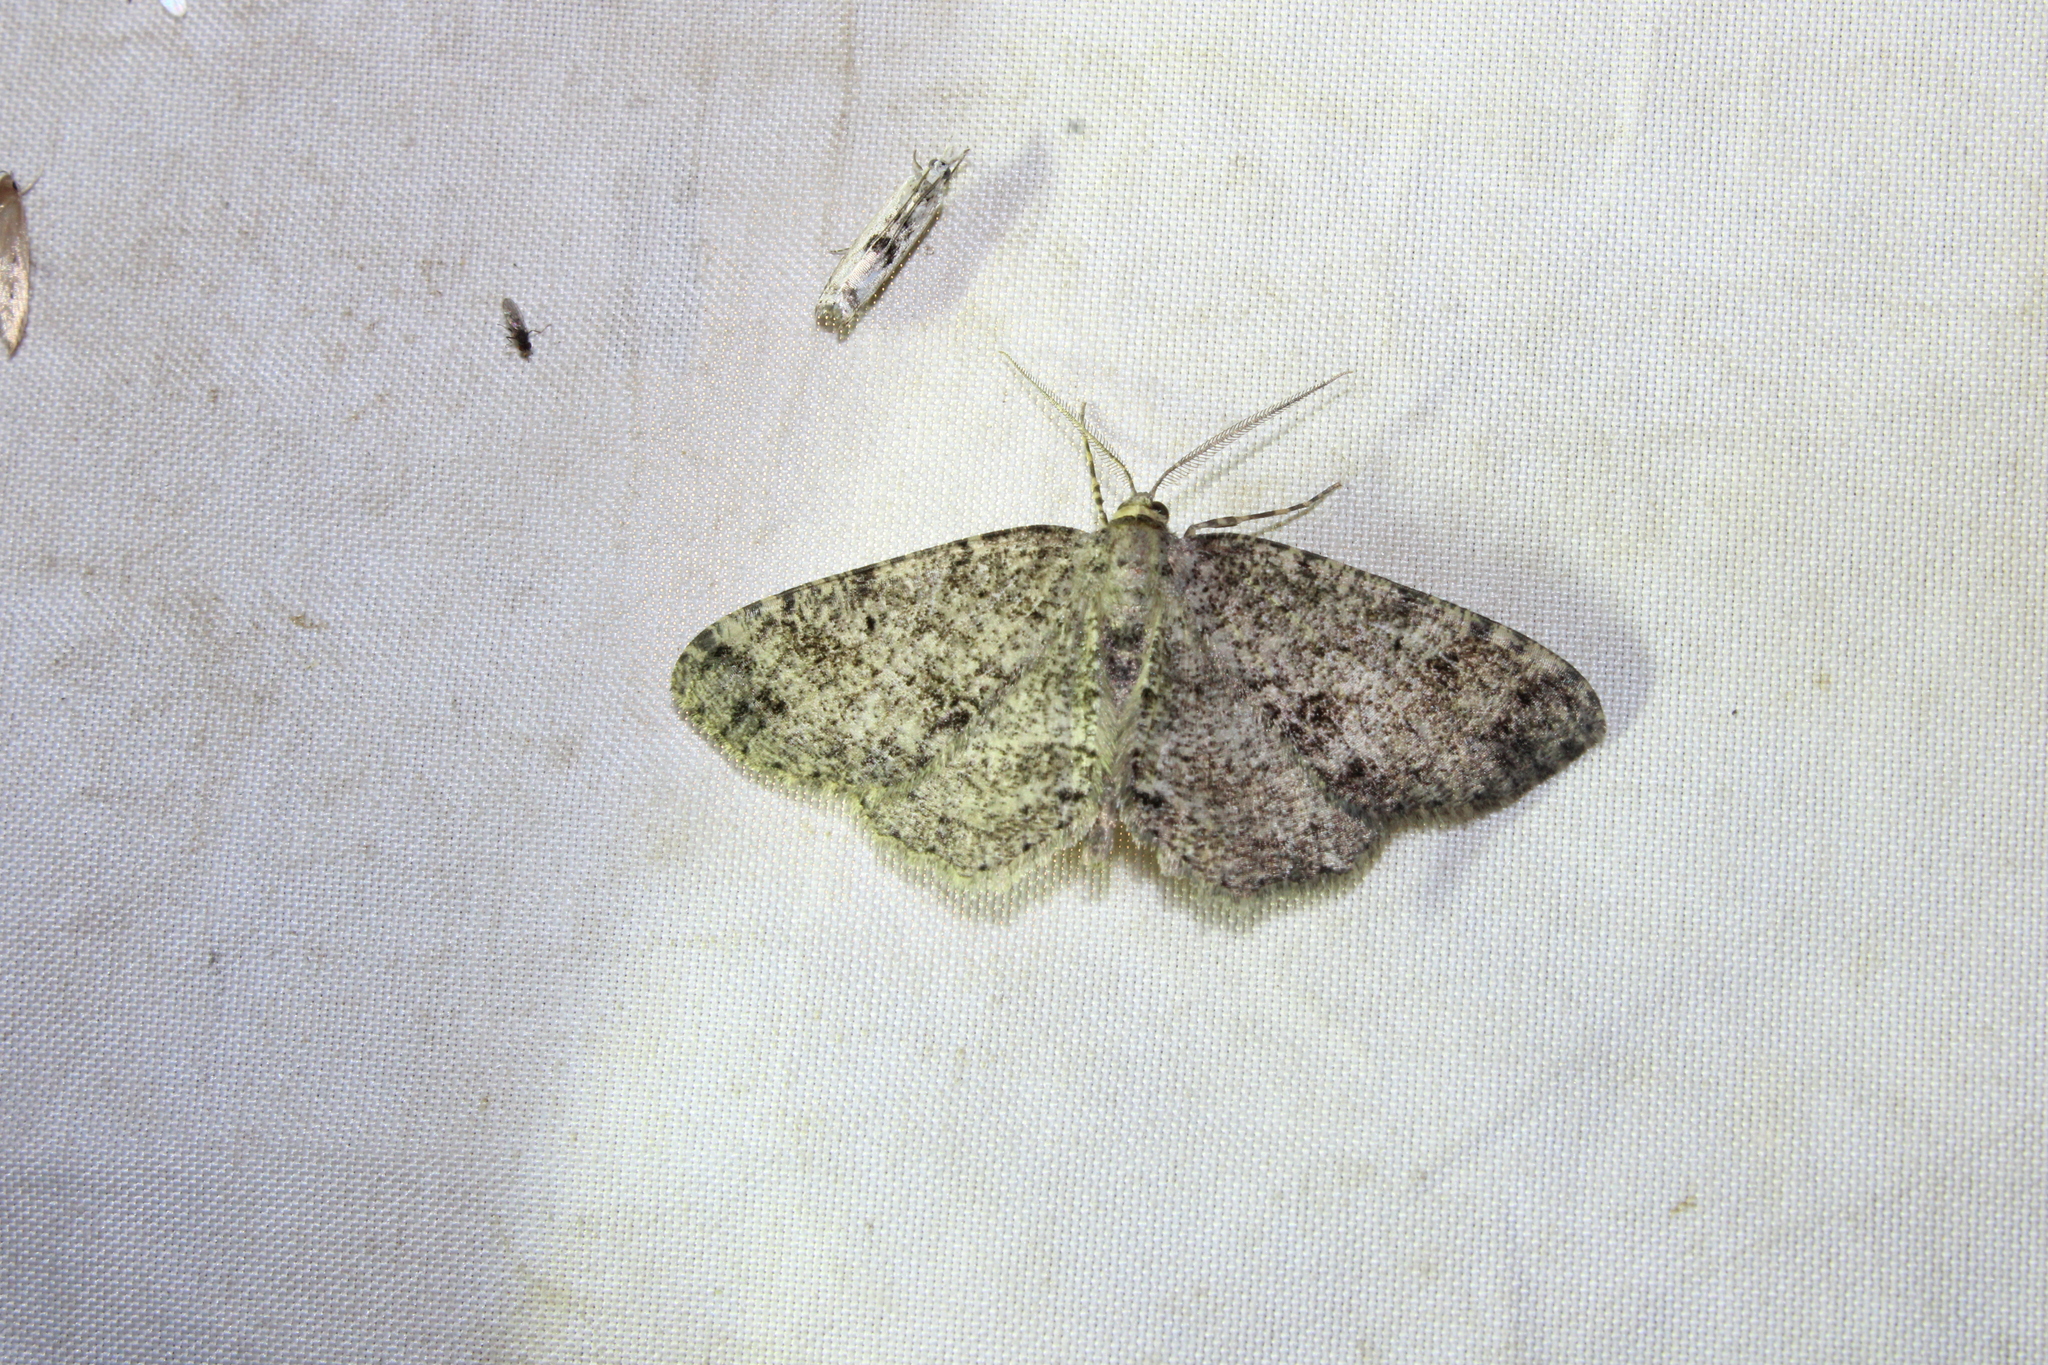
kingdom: Animalia
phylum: Arthropoda
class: Insecta
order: Lepidoptera
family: Geometridae
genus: Melanolophia
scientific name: Melanolophia canadaria
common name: Canadian melanolophia
